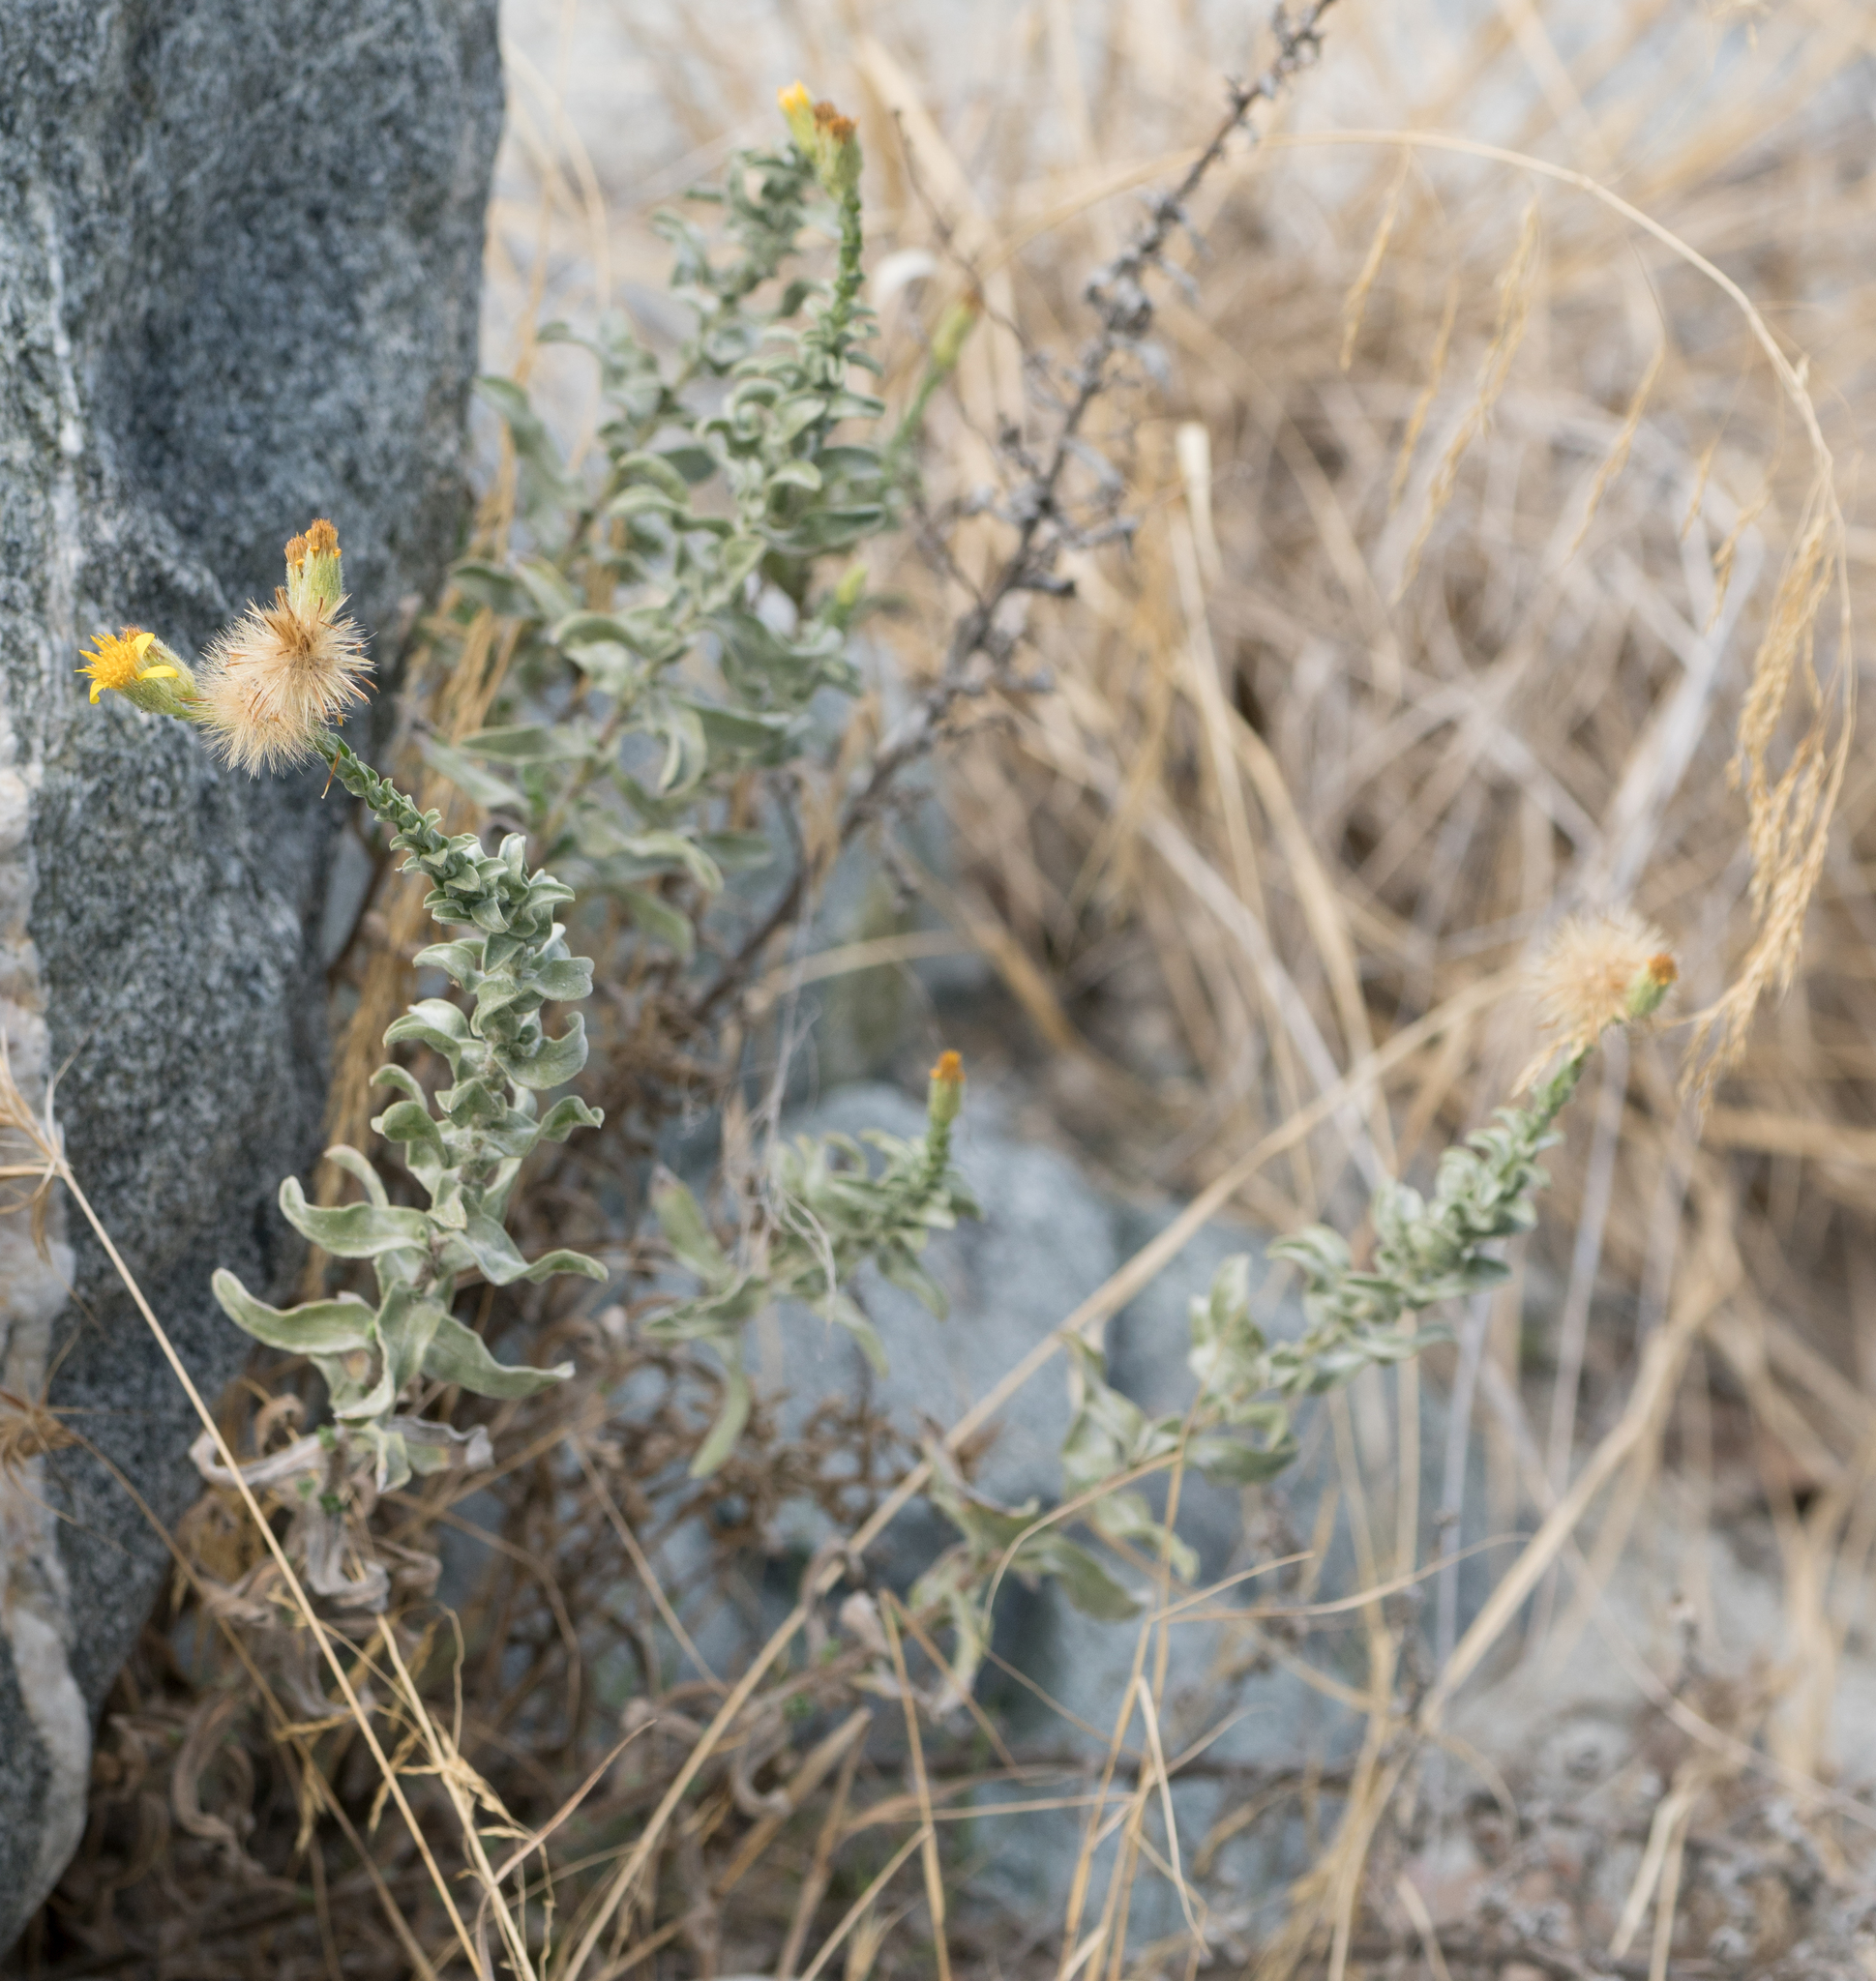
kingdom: Plantae
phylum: Tracheophyta
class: Magnoliopsida
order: Asterales
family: Asteraceae
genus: Heterotheca
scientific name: Heterotheca sessiliflora
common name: Sessile-flower golden-aster
